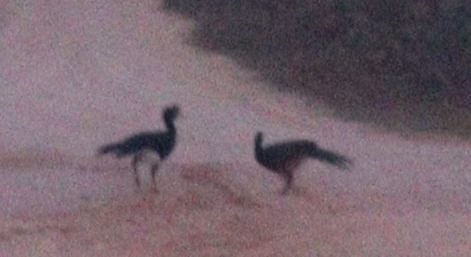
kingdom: Animalia
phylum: Chordata
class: Aves
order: Galliformes
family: Cracidae
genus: Crax
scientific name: Crax fasciolata
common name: Bare-faced curassow
